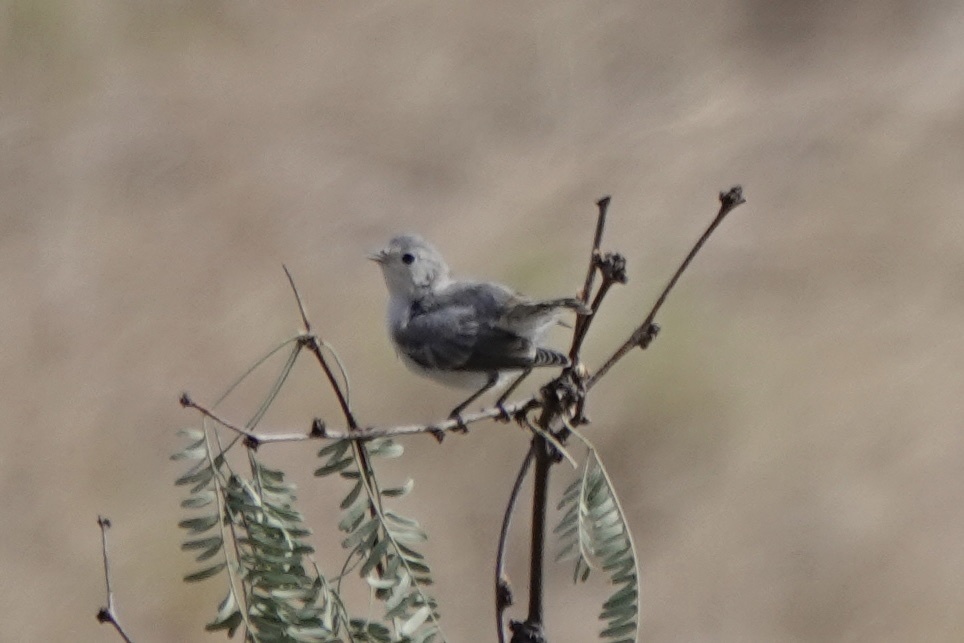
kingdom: Animalia
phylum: Chordata
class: Aves
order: Passeriformes
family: Parulidae
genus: Leiothlypis
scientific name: Leiothlypis luciae
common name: Lucy's warbler
